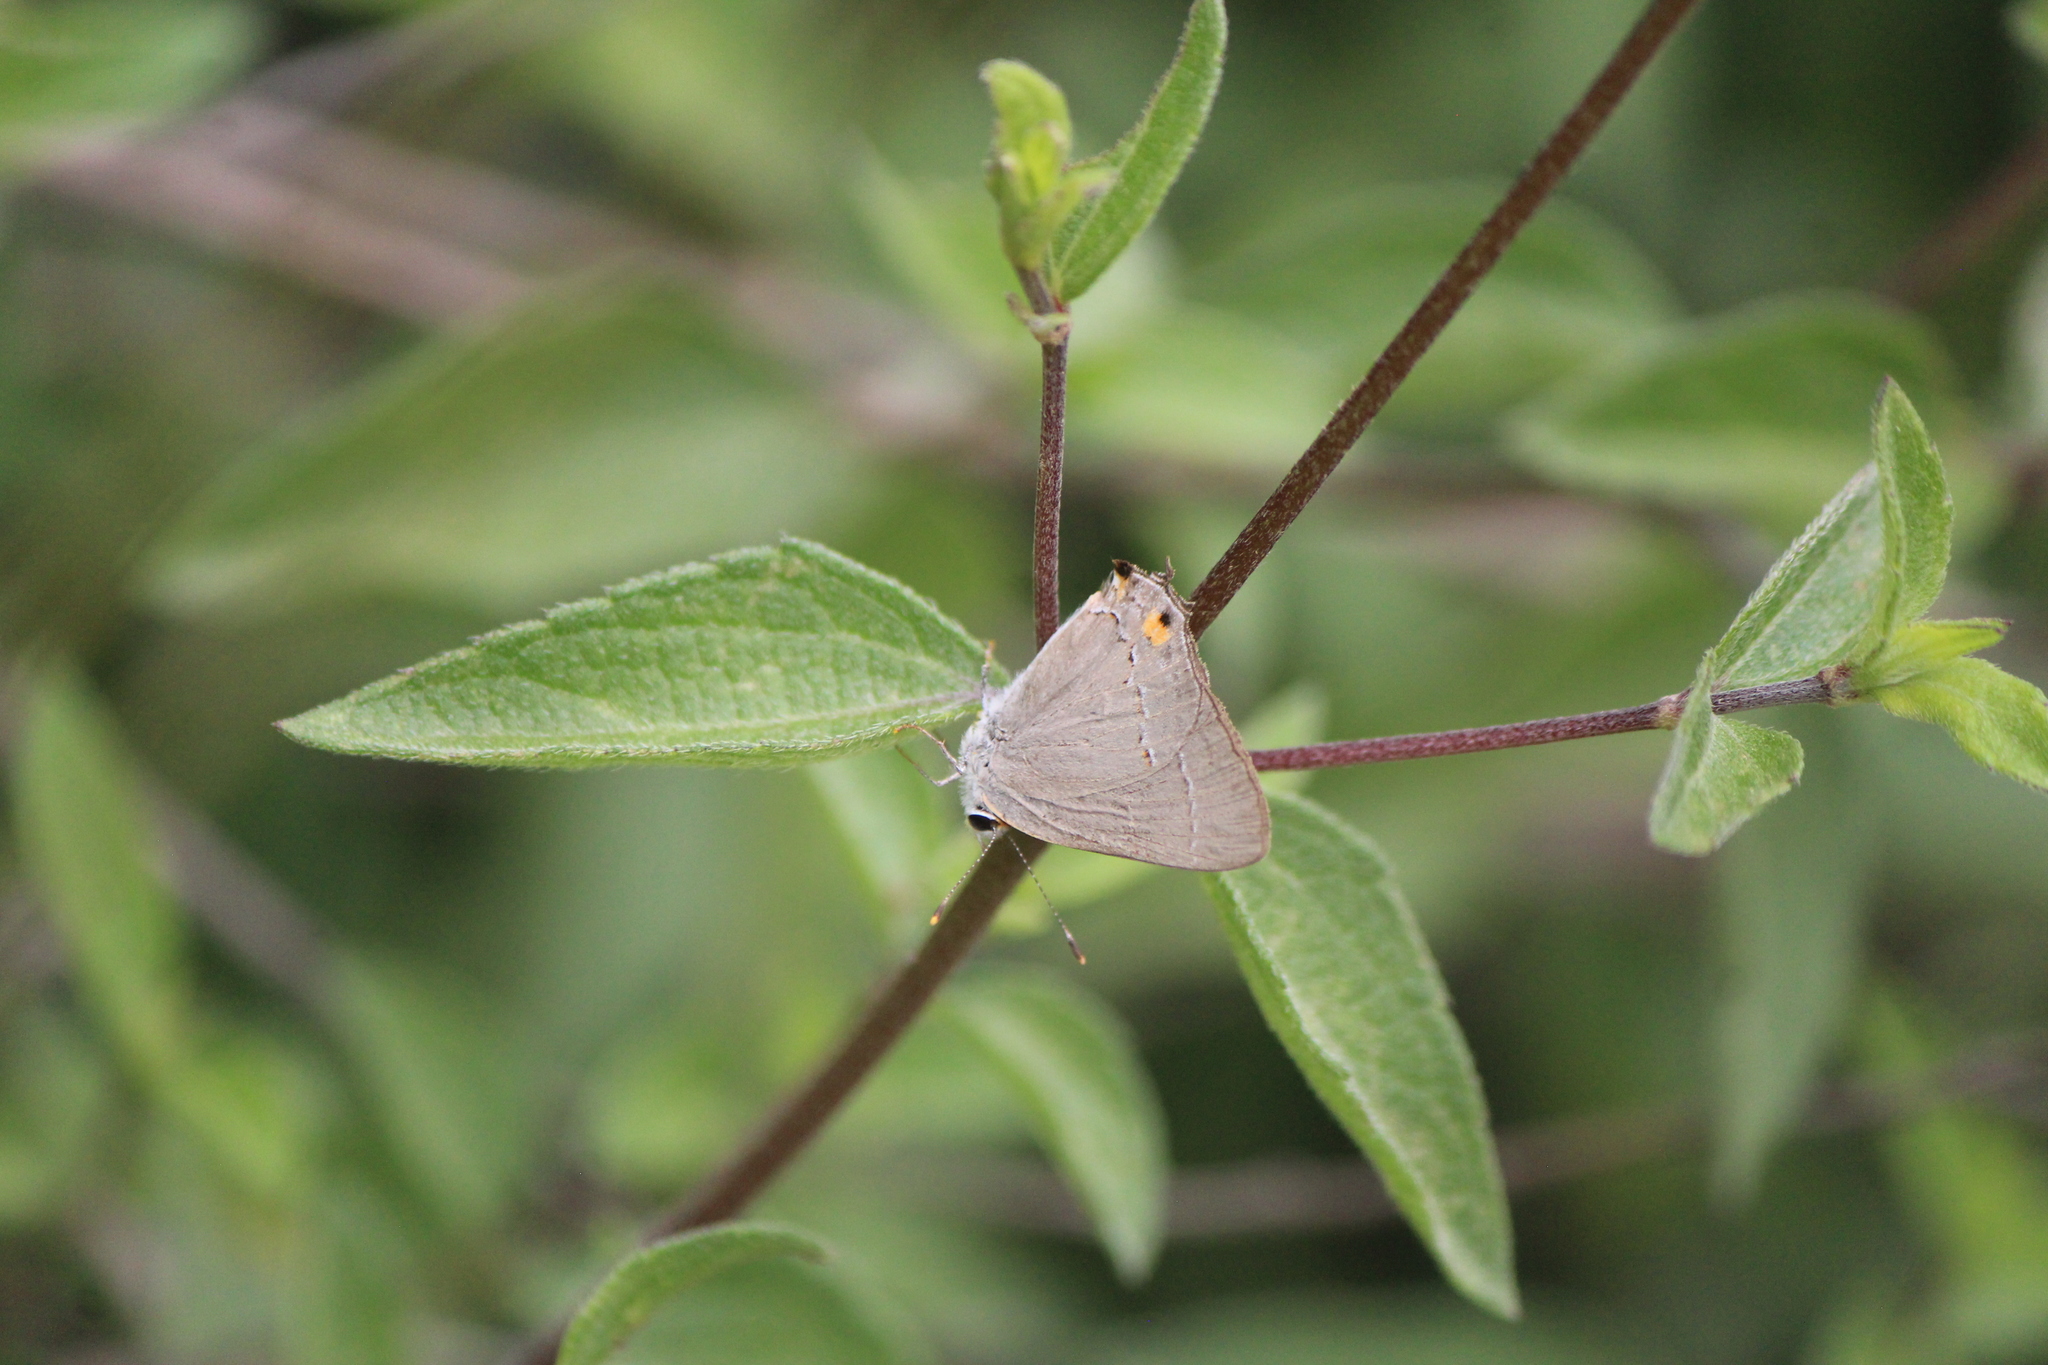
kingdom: Animalia
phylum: Arthropoda
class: Insecta
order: Lepidoptera
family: Lycaenidae
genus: Strymon
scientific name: Strymon melinus
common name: Gray hairstreak
